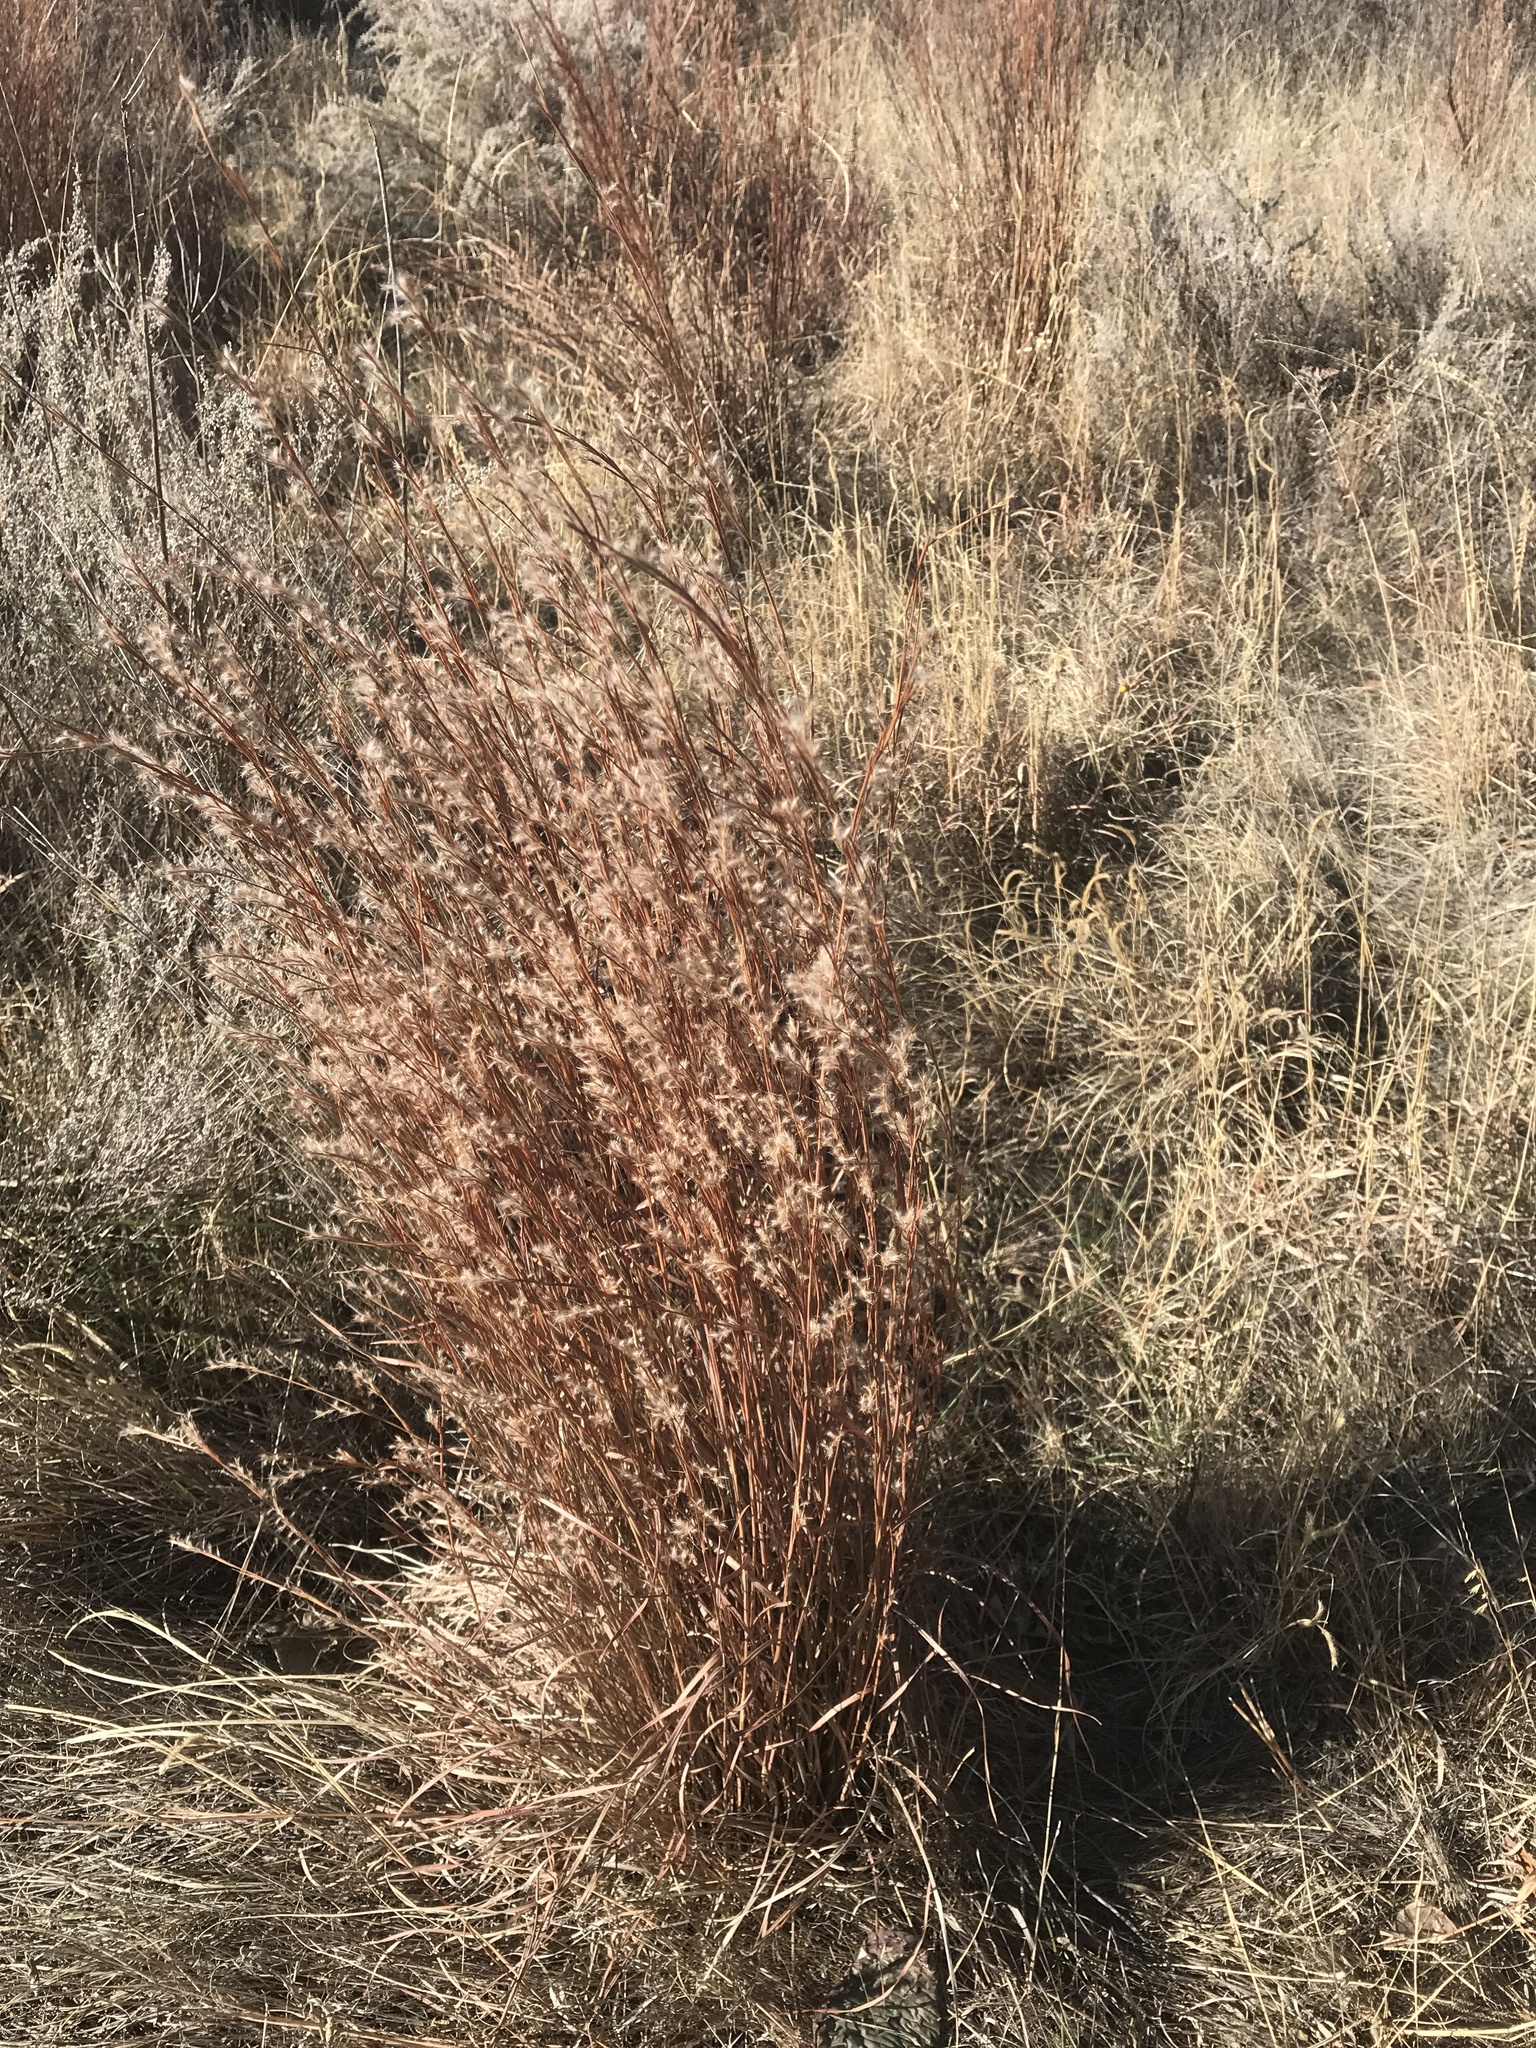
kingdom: Plantae
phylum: Tracheophyta
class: Liliopsida
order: Poales
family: Poaceae
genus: Schizachyrium
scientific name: Schizachyrium scoparium
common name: Little bluestem
